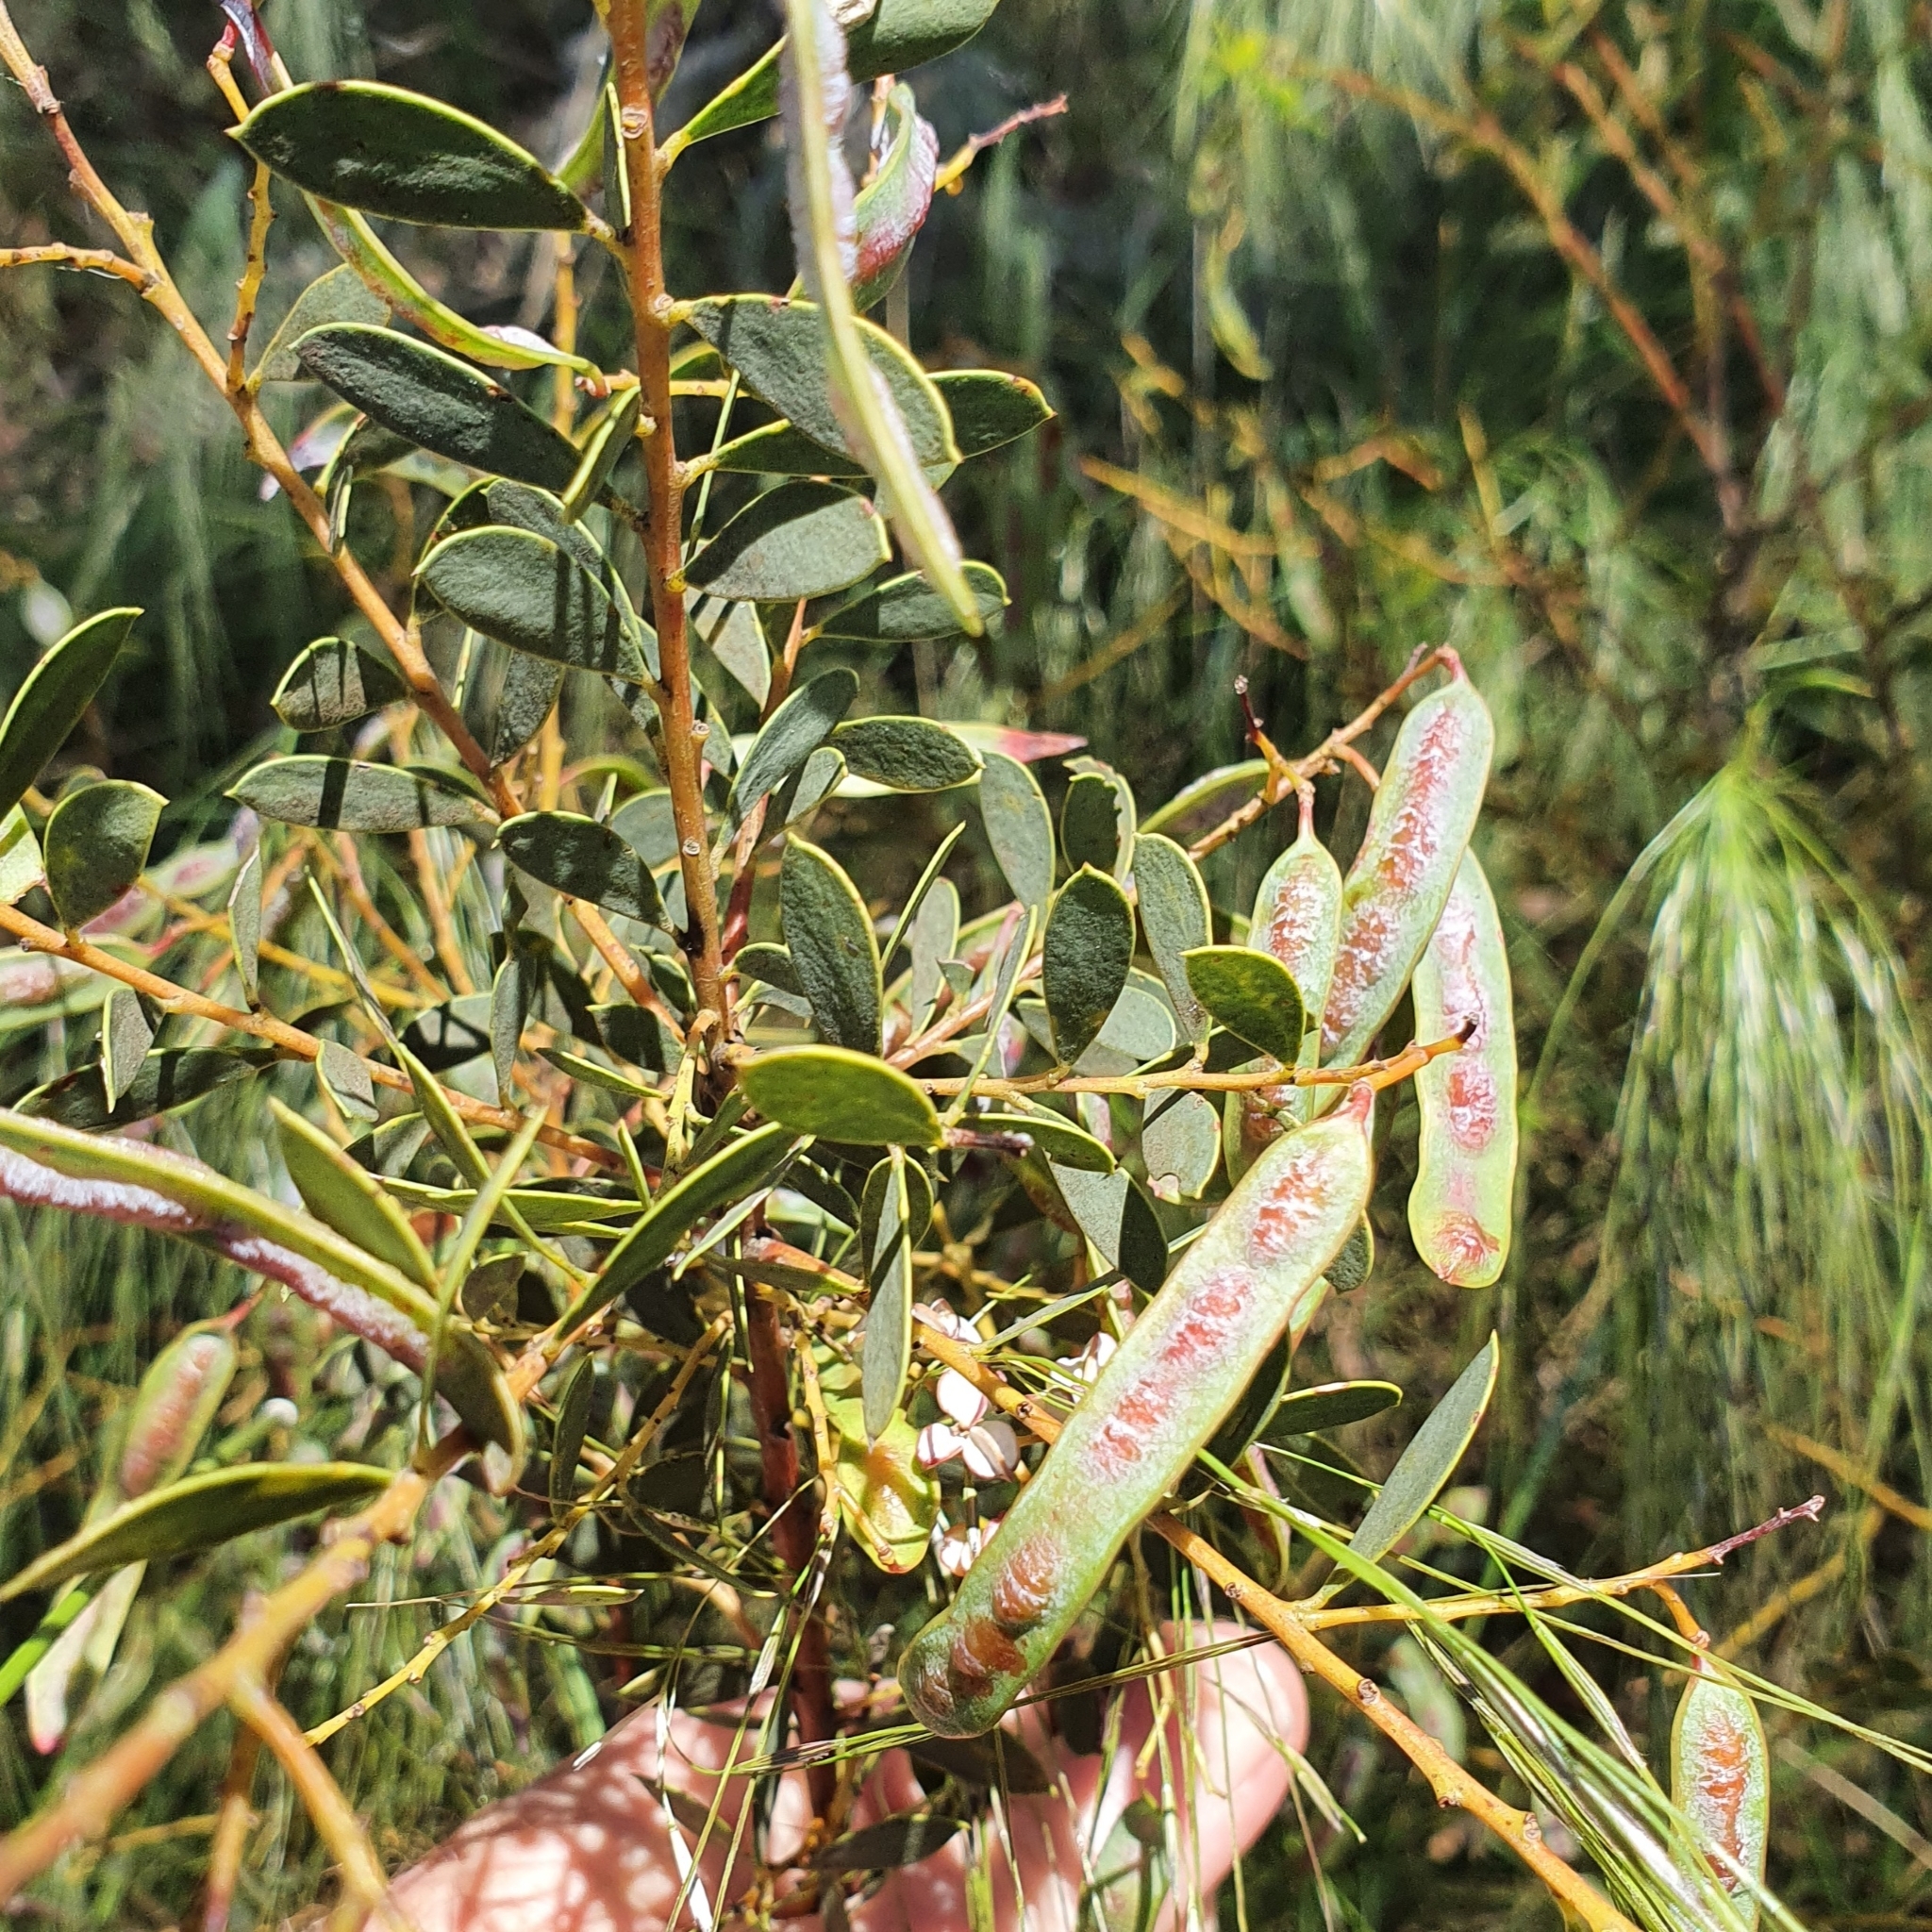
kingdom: Plantae
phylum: Tracheophyta
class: Magnoliopsida
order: Fabales
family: Fabaceae
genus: Acacia
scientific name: Acacia buxifolia
